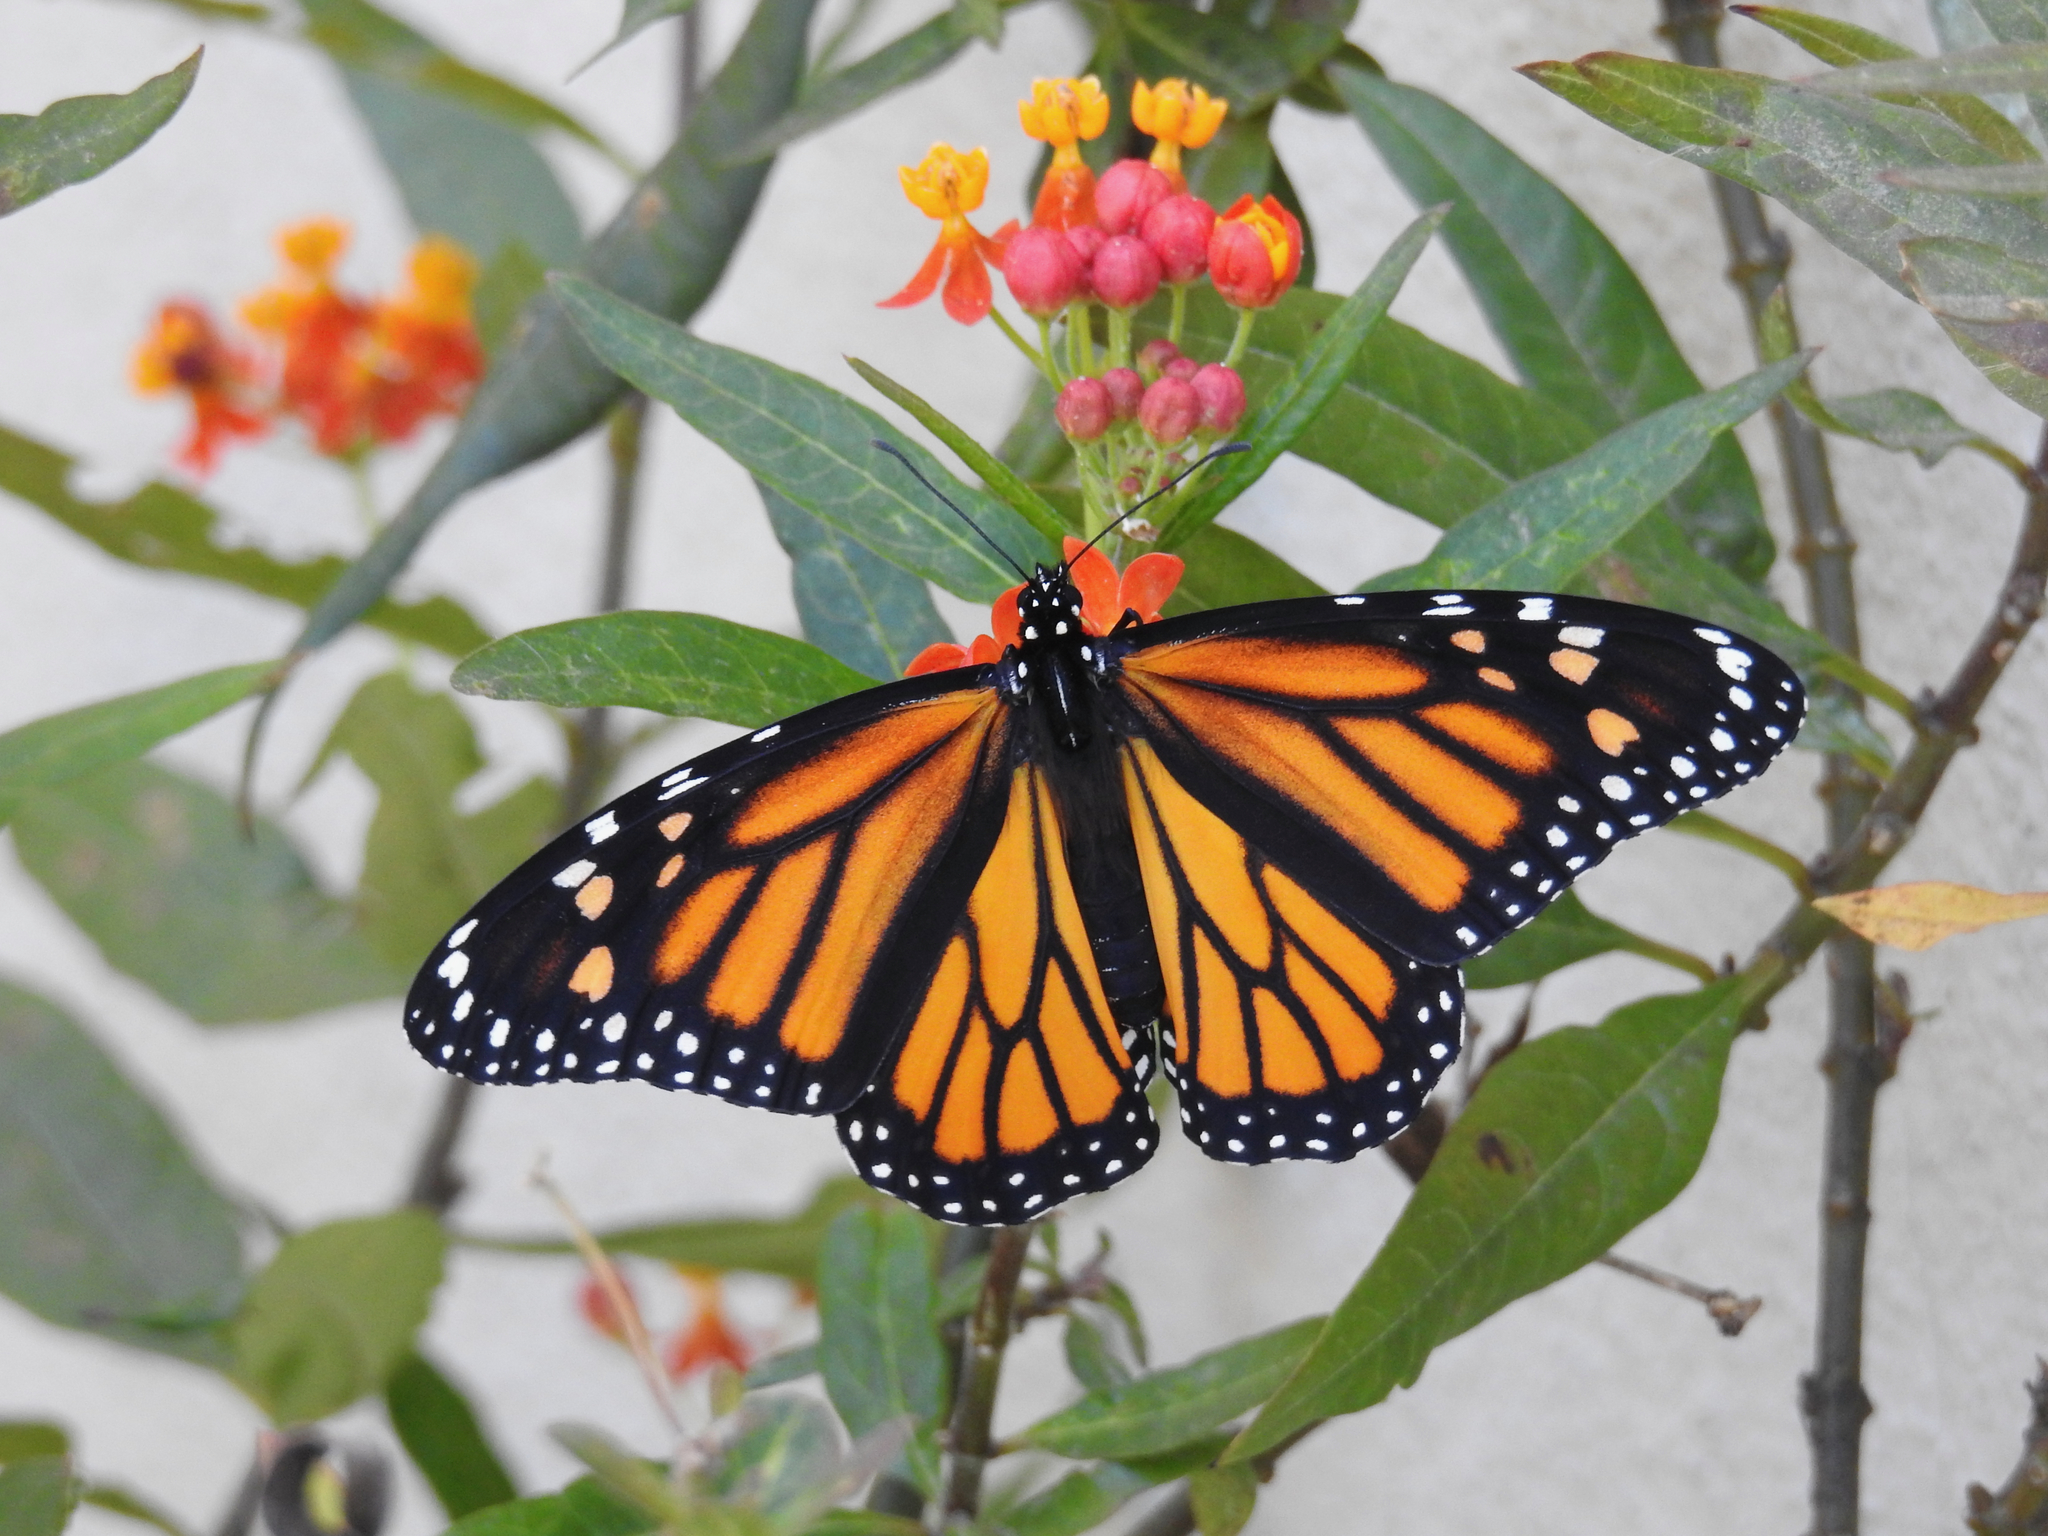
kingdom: Animalia
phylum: Arthropoda
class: Insecta
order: Lepidoptera
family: Nymphalidae
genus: Danaus
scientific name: Danaus plexippus
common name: Monarch
